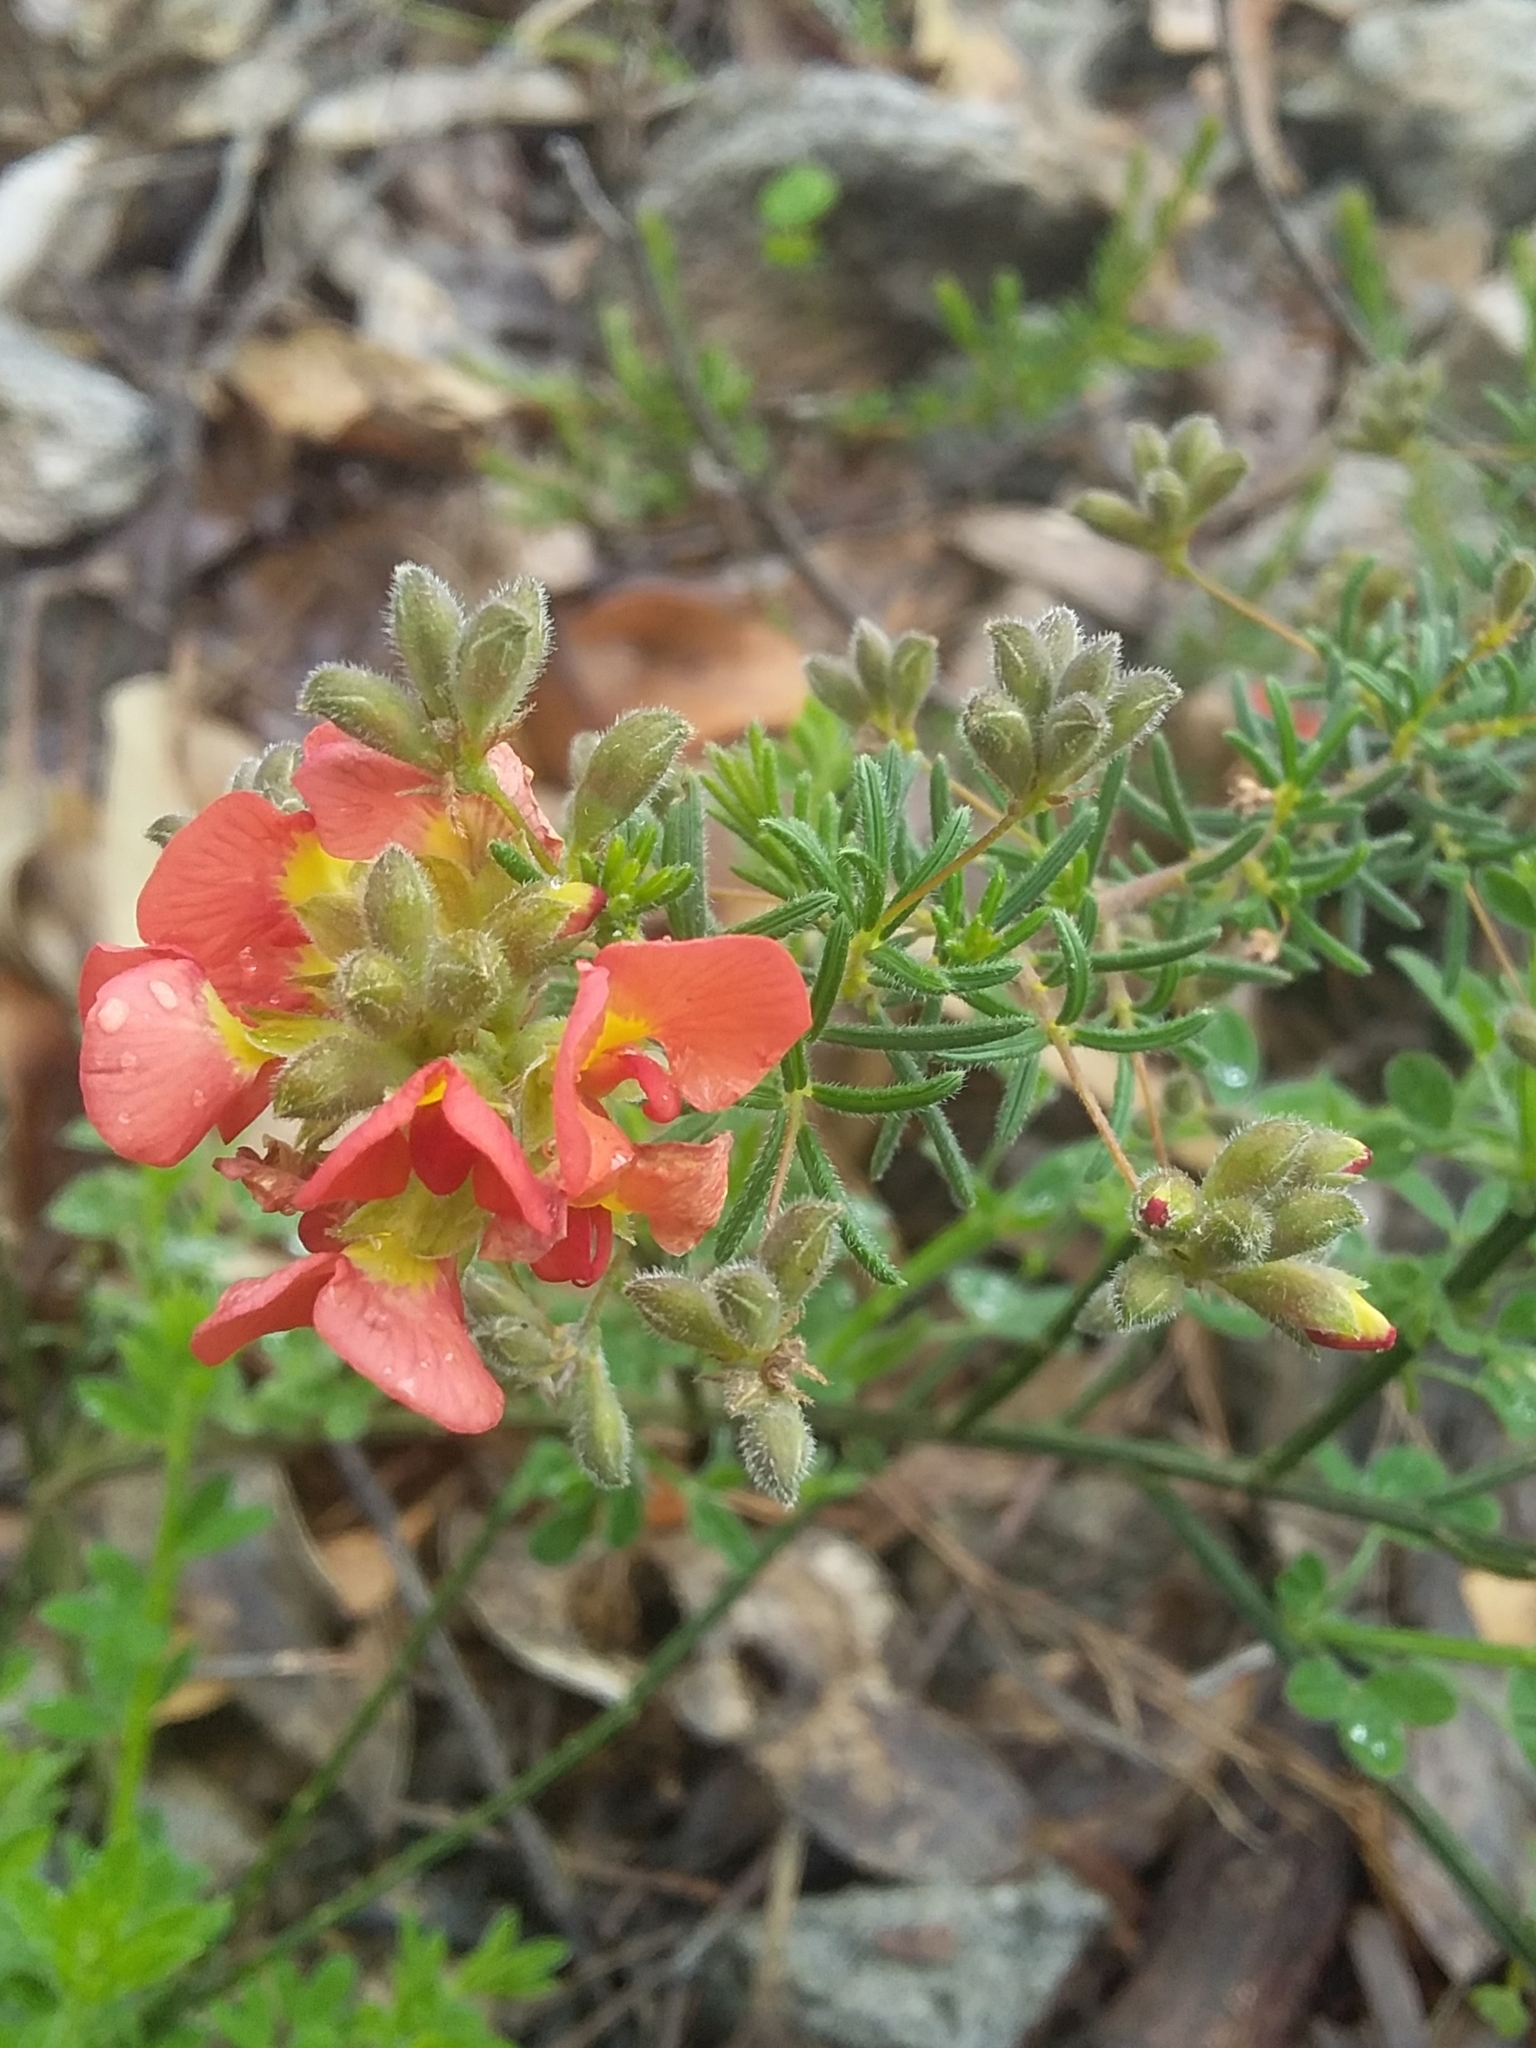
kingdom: Plantae
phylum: Tracheophyta
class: Magnoliopsida
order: Fabales
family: Fabaceae
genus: Dillwynia
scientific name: Dillwynia hispida
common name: Red parrot-pea
